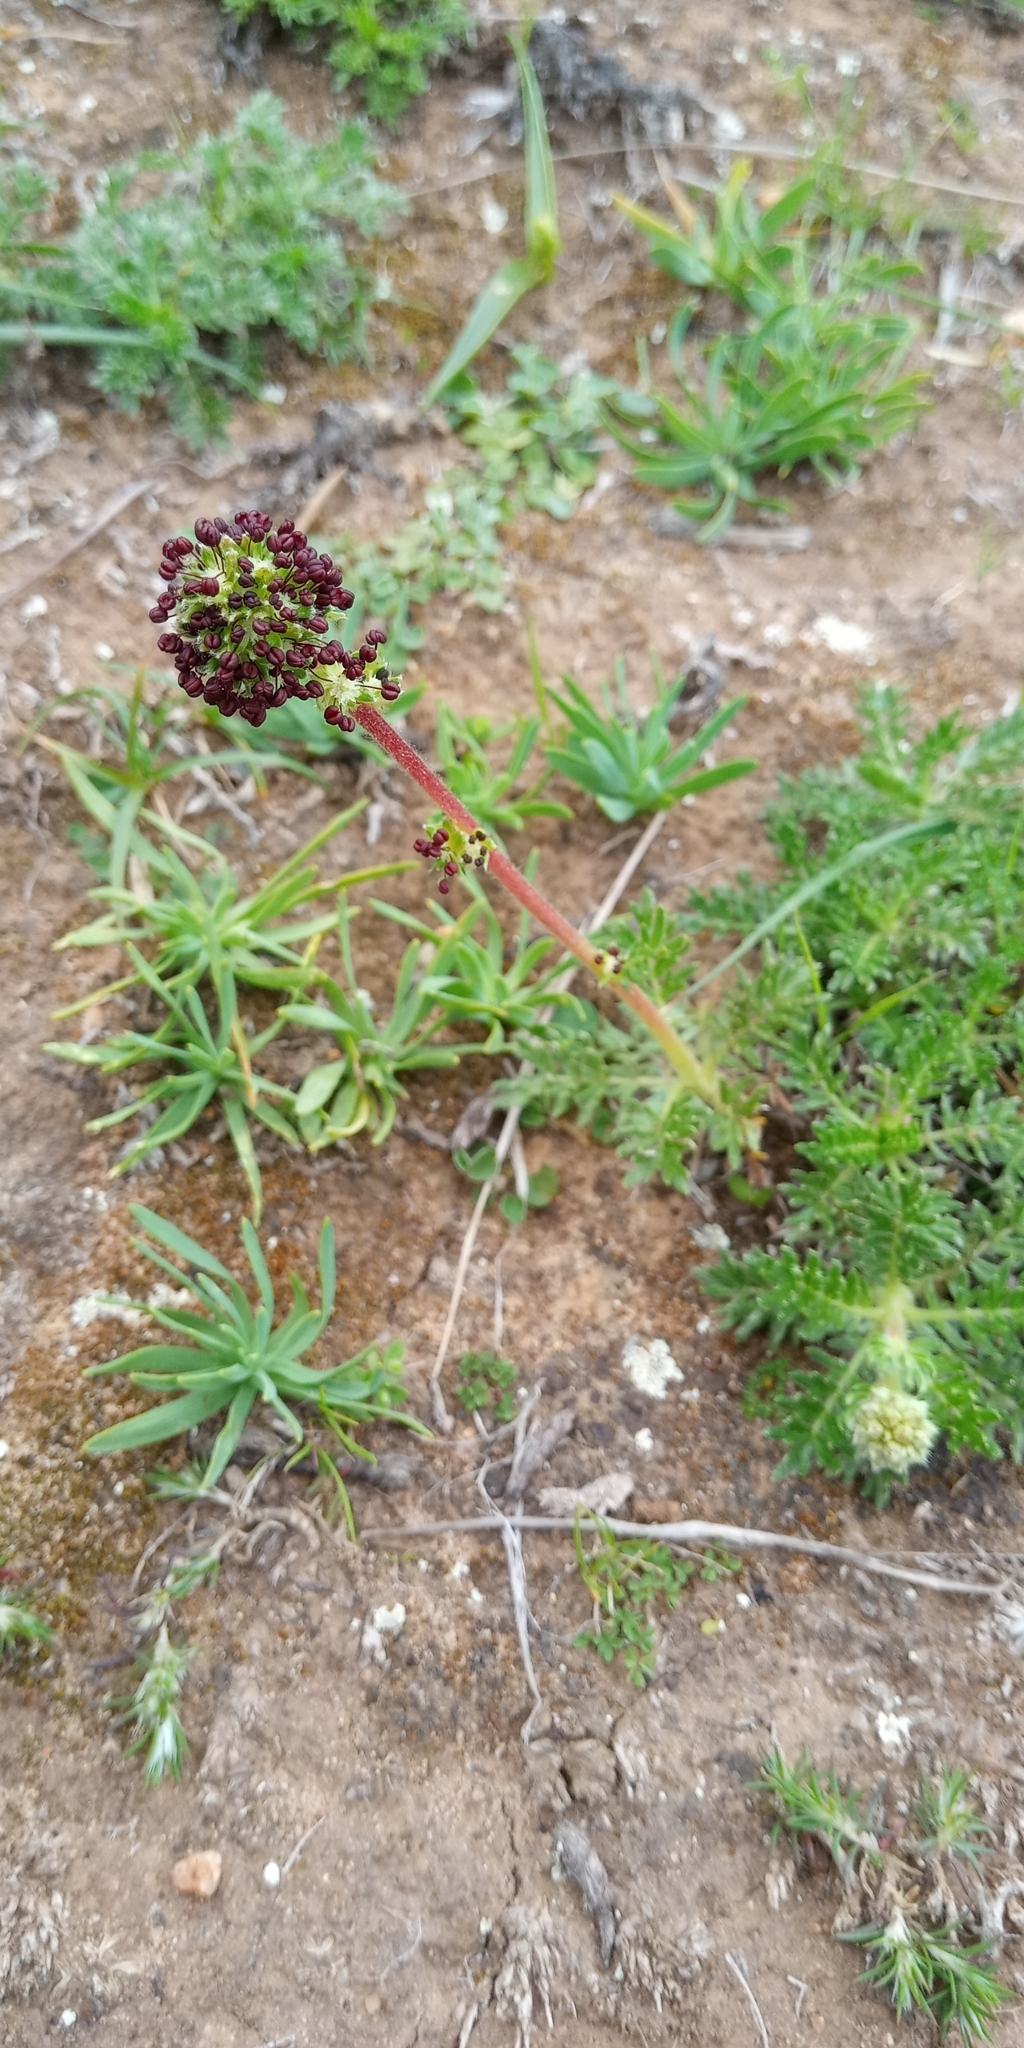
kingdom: Plantae
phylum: Tracheophyta
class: Magnoliopsida
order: Rosales
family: Rosaceae
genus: Acaena
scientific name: Acaena pinnatifida
